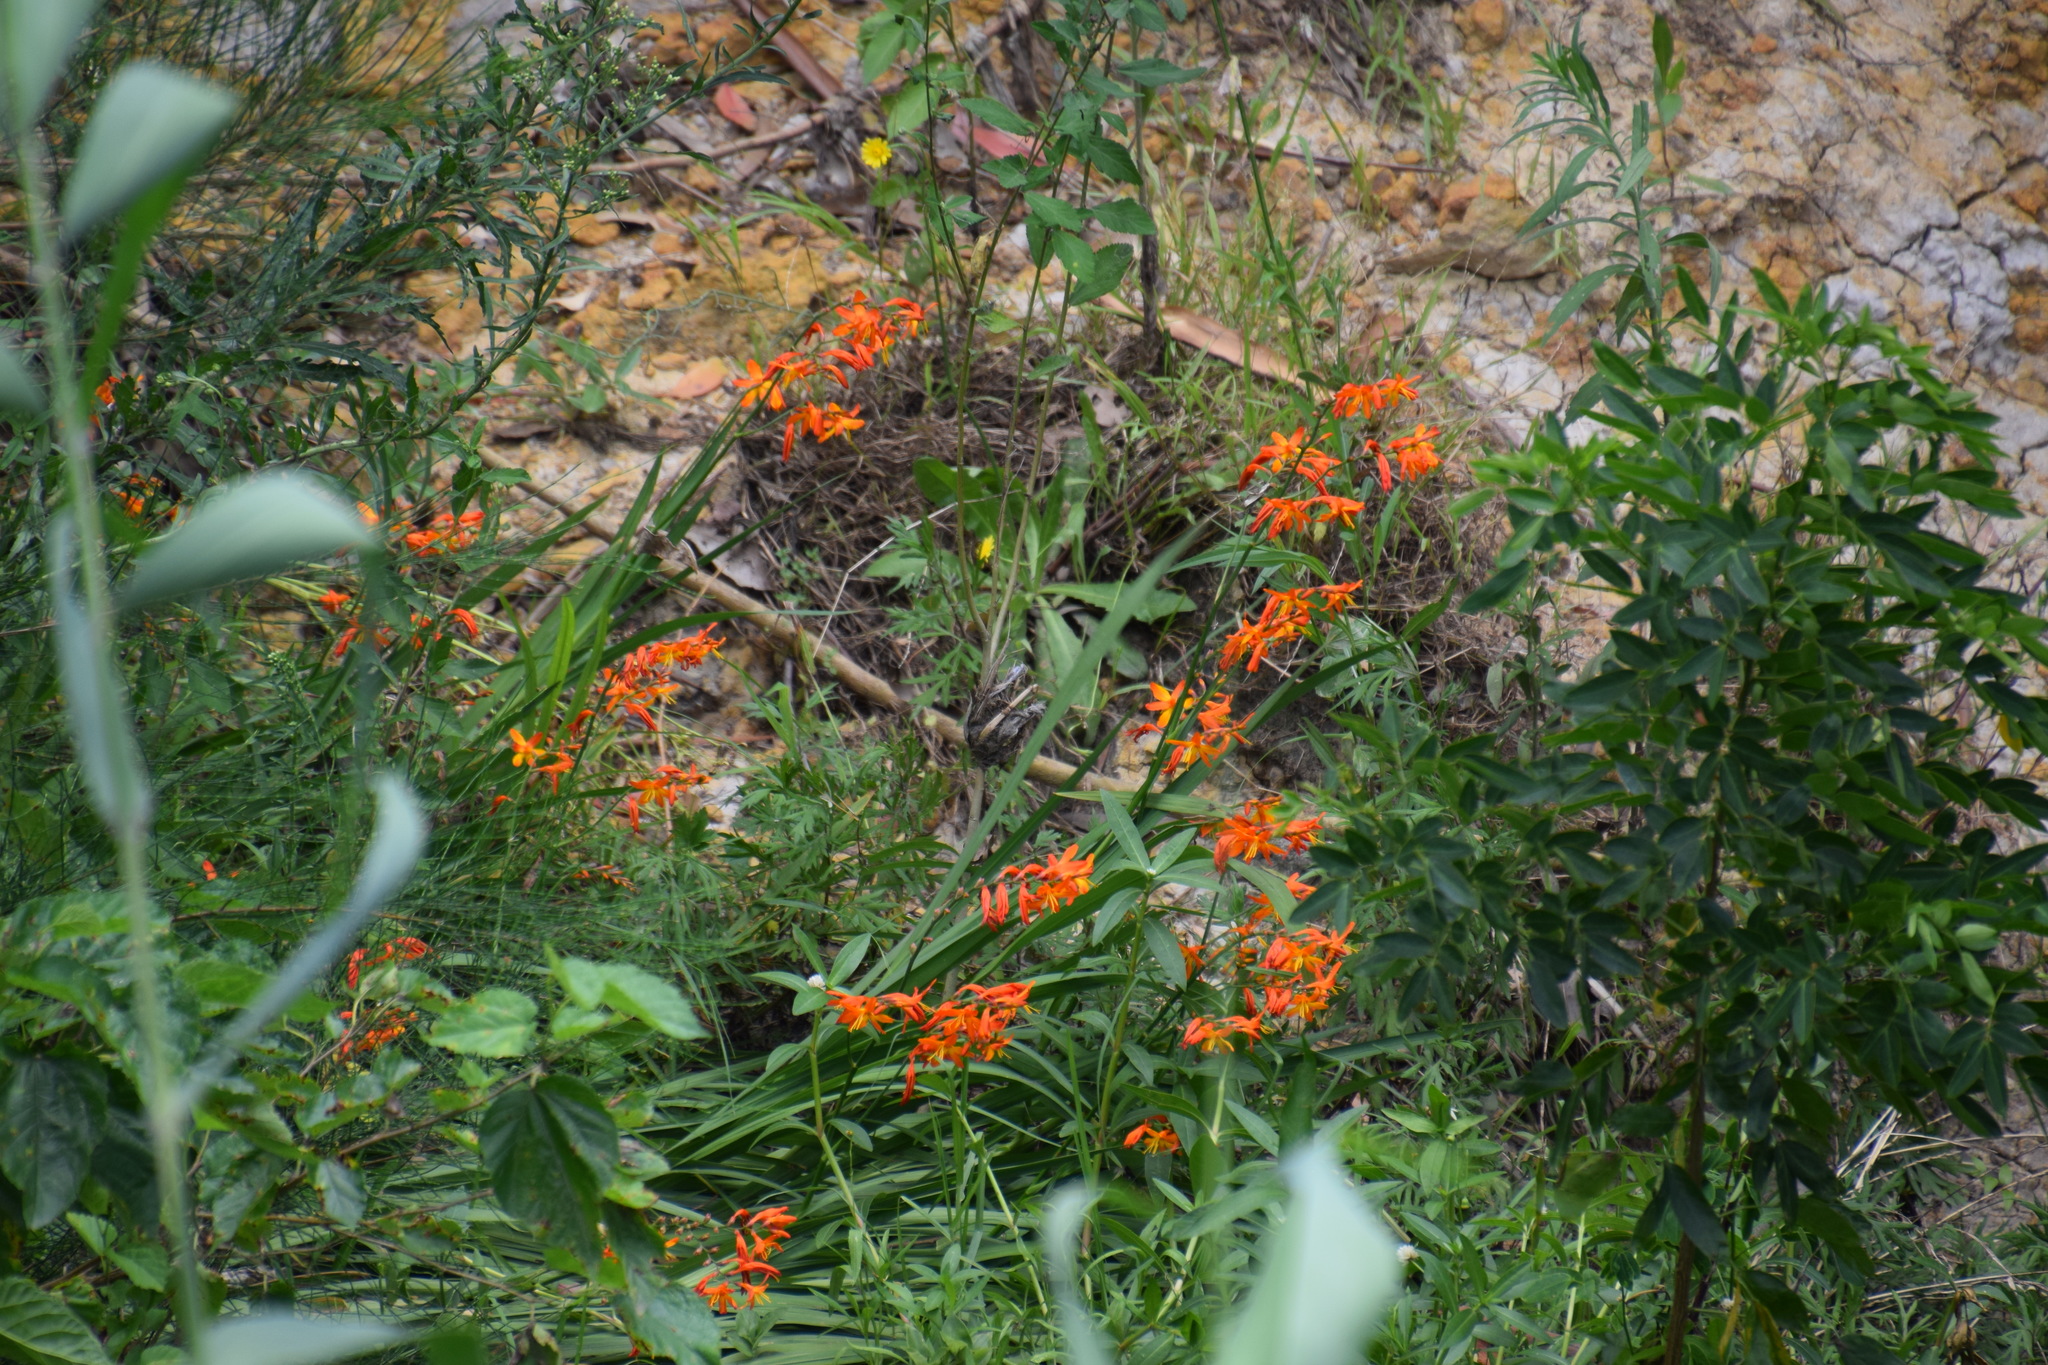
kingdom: Plantae
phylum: Tracheophyta
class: Liliopsida
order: Asparagales
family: Iridaceae
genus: Crocosmia
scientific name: Crocosmia crocosmiiflora
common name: Montbretia
